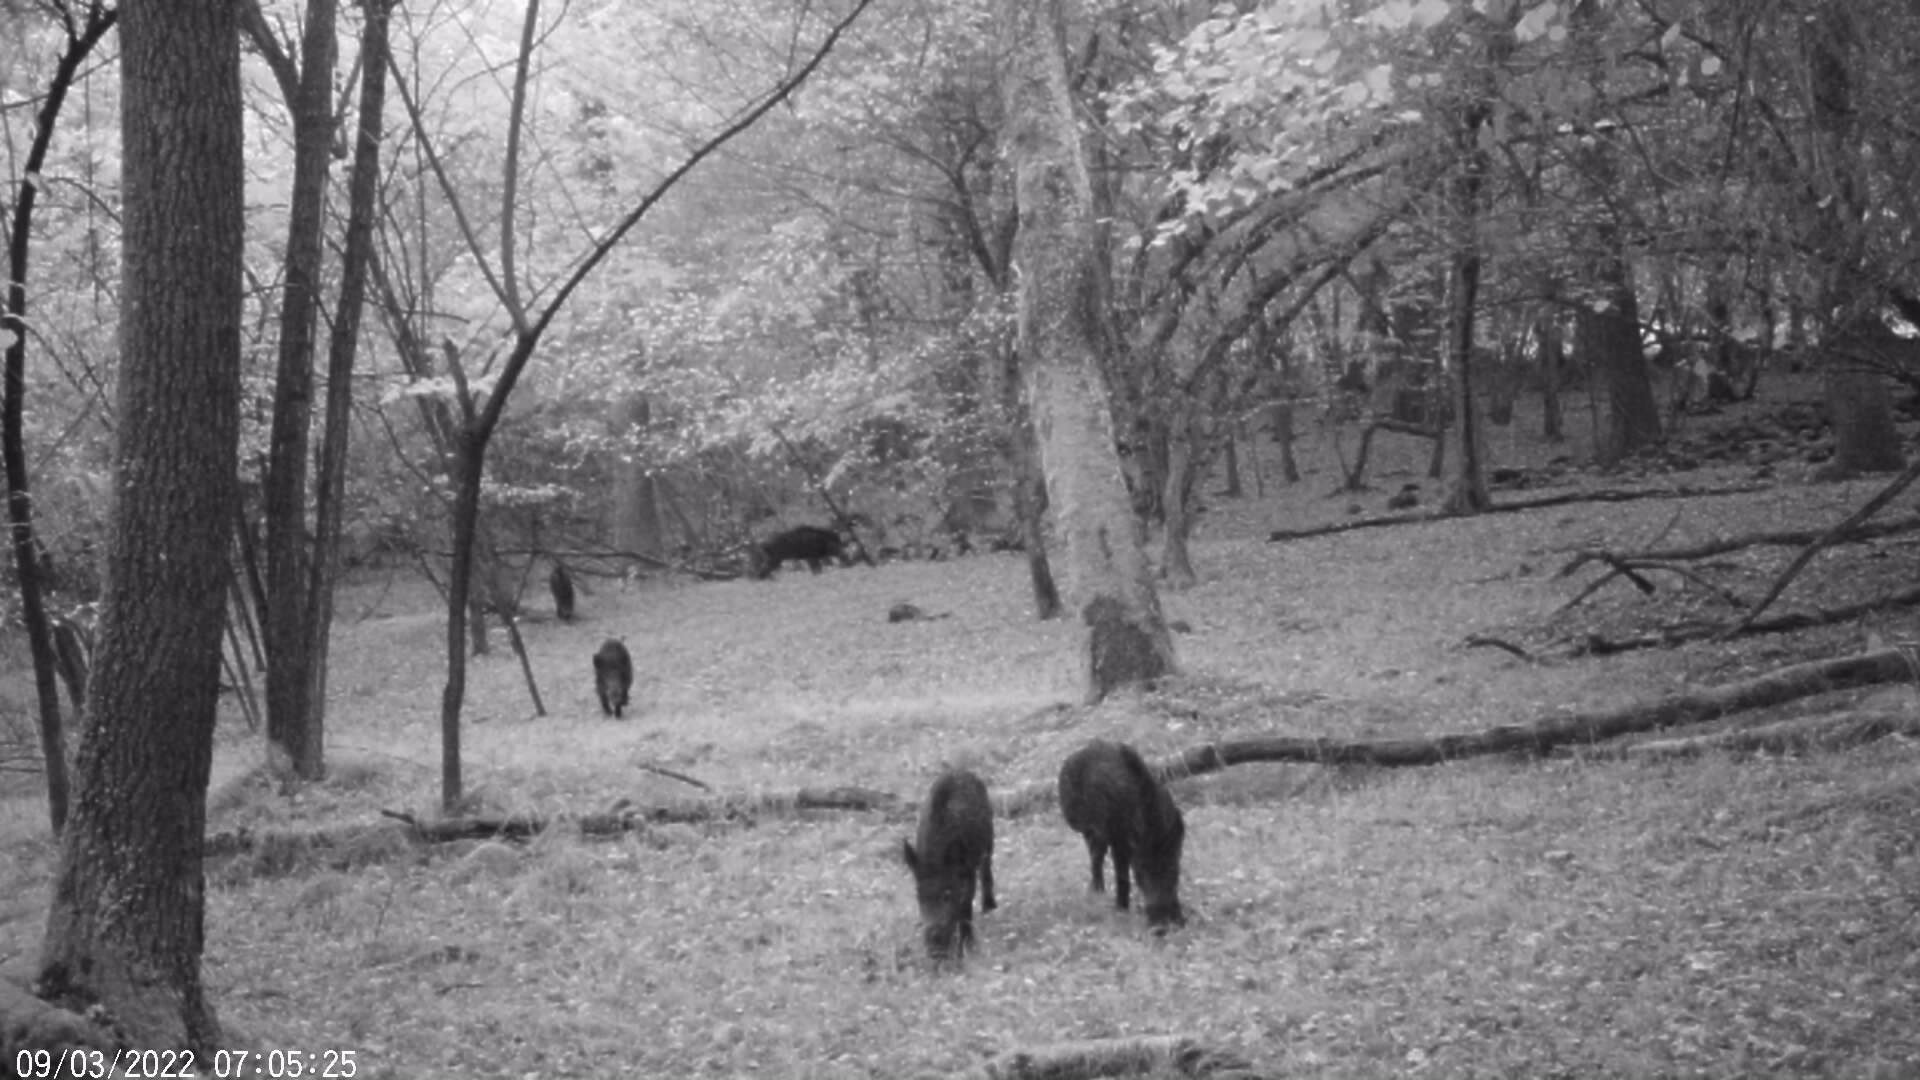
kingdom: Animalia
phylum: Chordata
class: Mammalia
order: Artiodactyla
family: Suidae
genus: Sus
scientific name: Sus scrofa
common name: Wild boar
